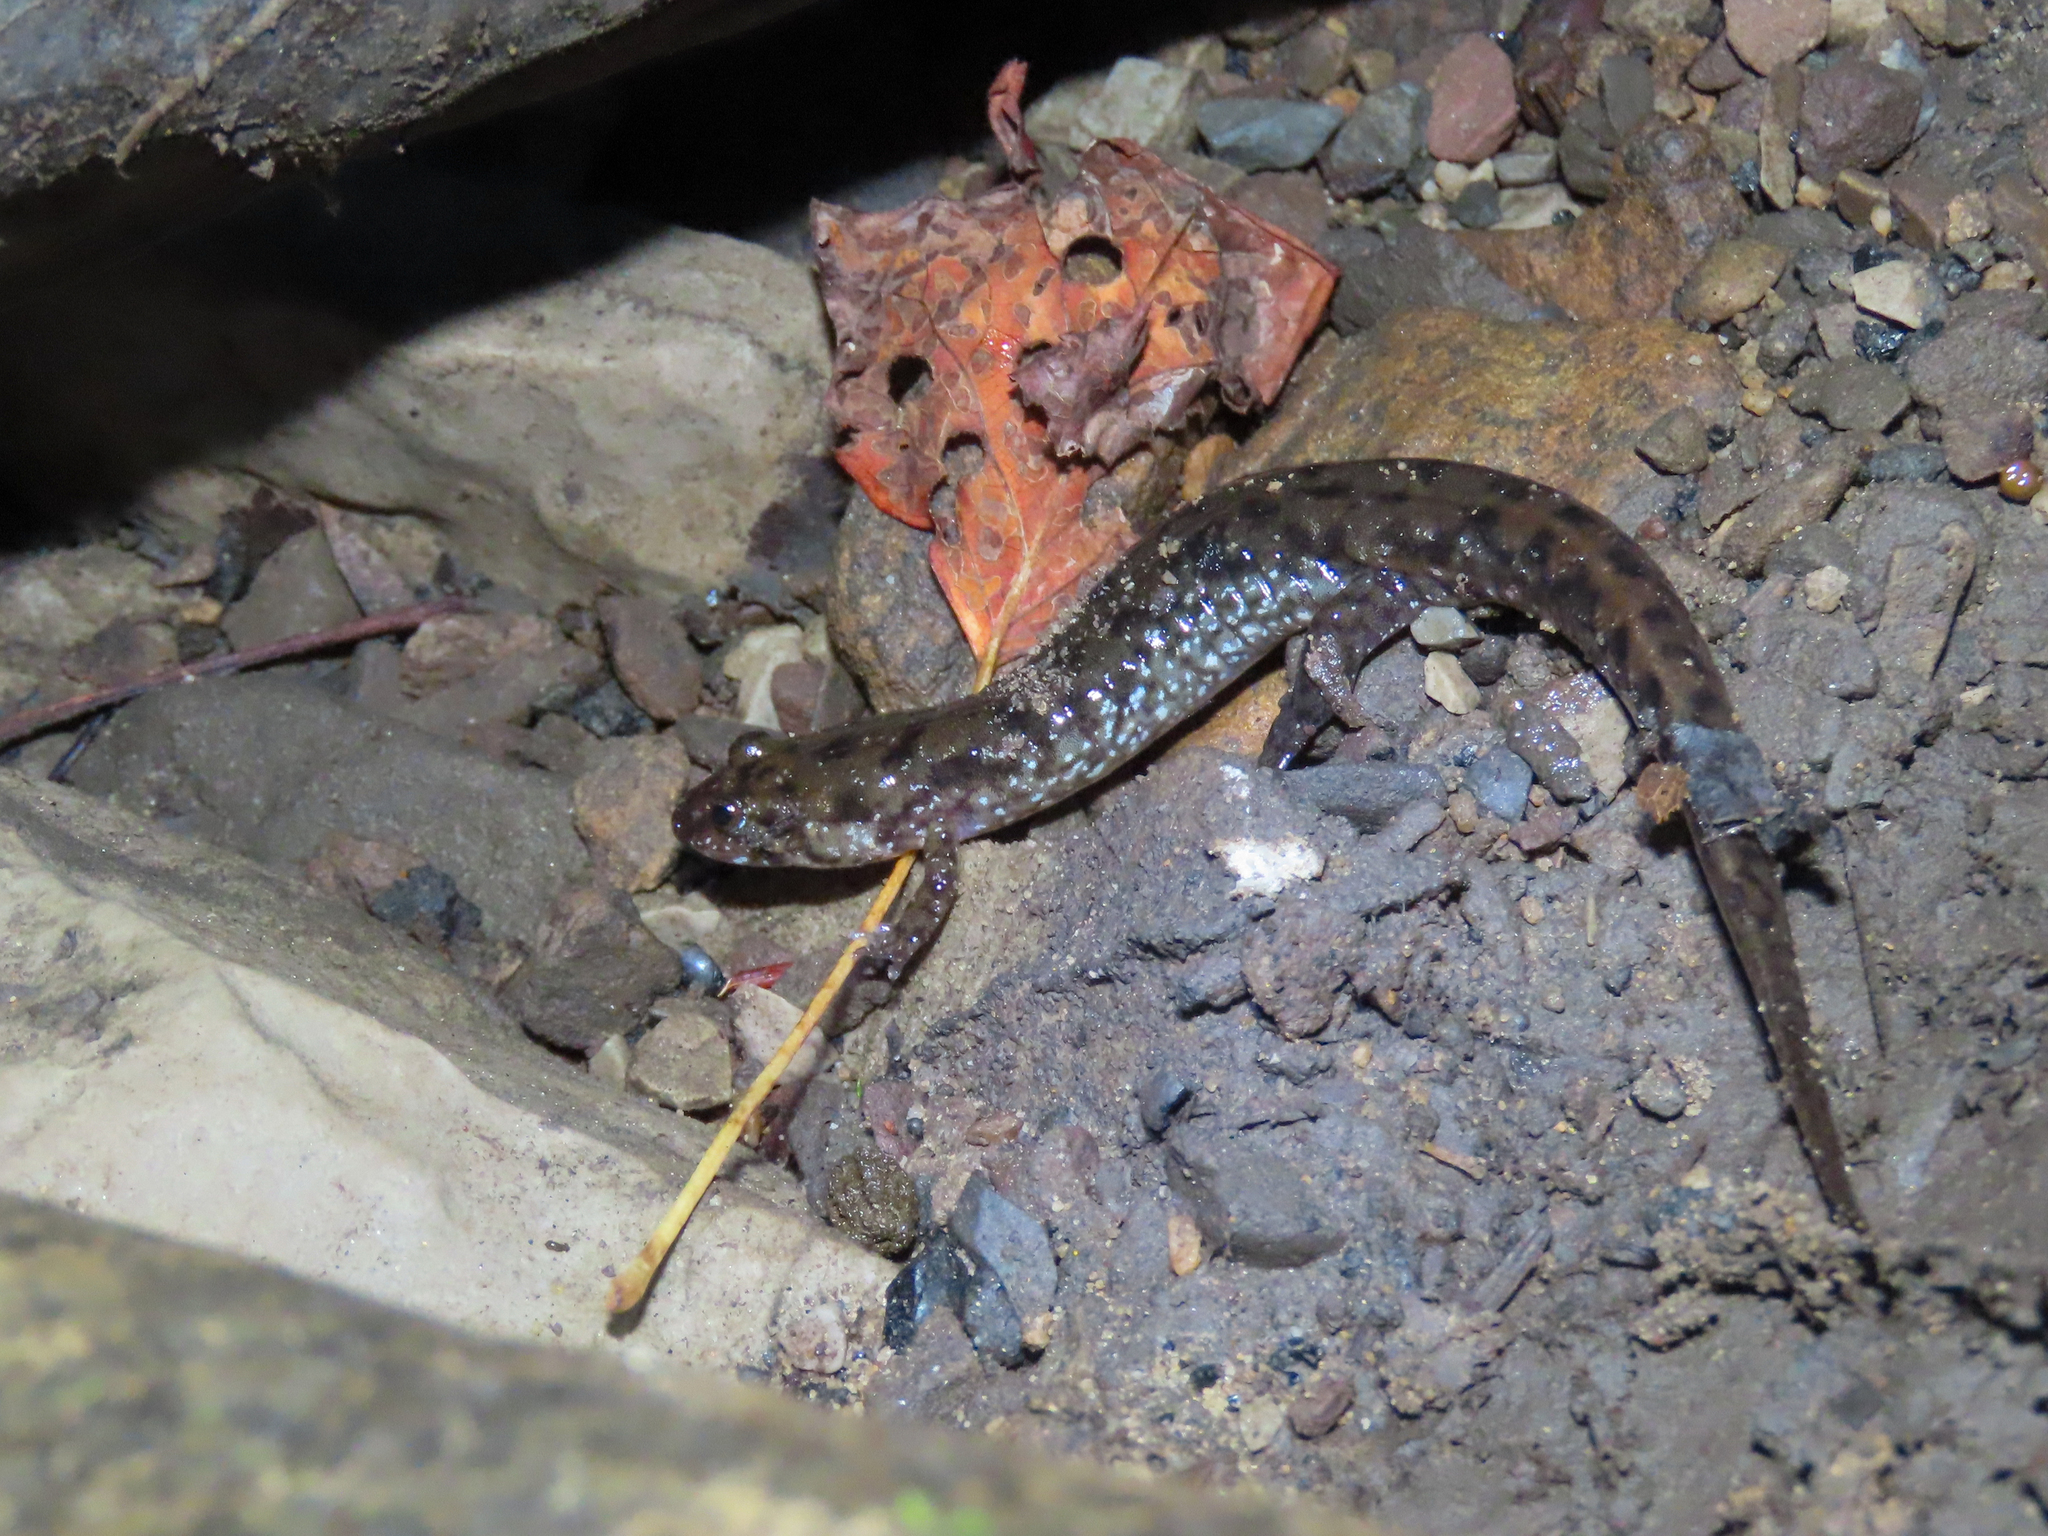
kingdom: Animalia
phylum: Chordata
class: Amphibia
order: Caudata
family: Plethodontidae
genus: Desmognathus
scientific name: Desmognathus monticola
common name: Seal salamander
